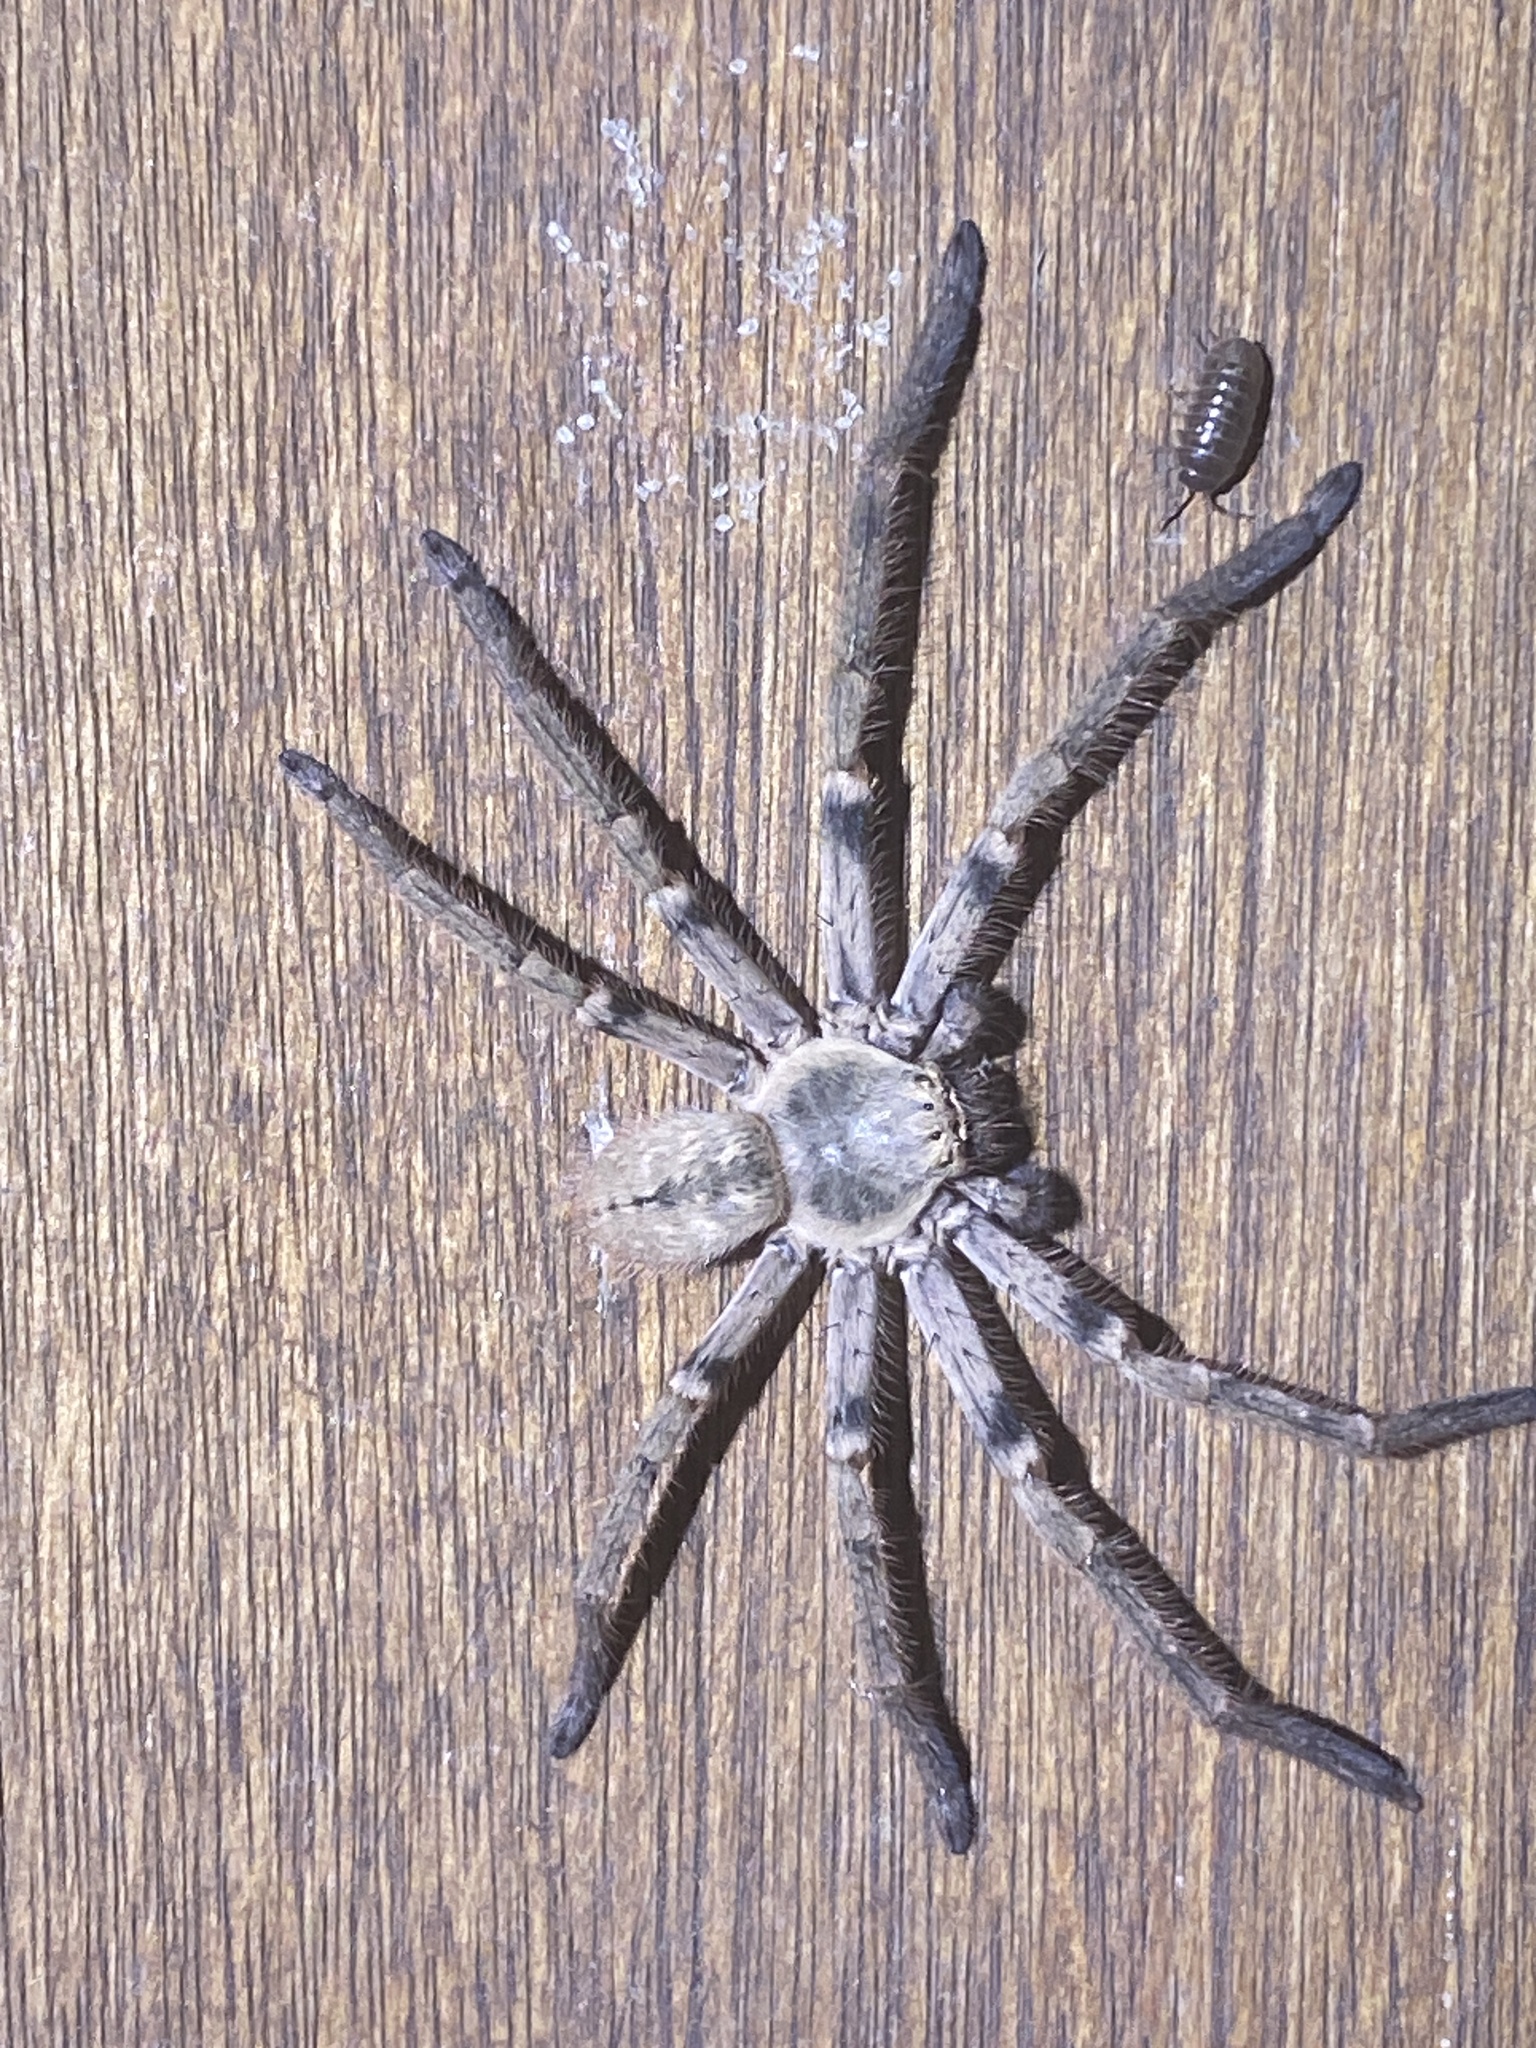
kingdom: Animalia
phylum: Arthropoda
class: Arachnida
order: Araneae
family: Sparassidae
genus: Polybetes
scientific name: Polybetes pythagoricus
